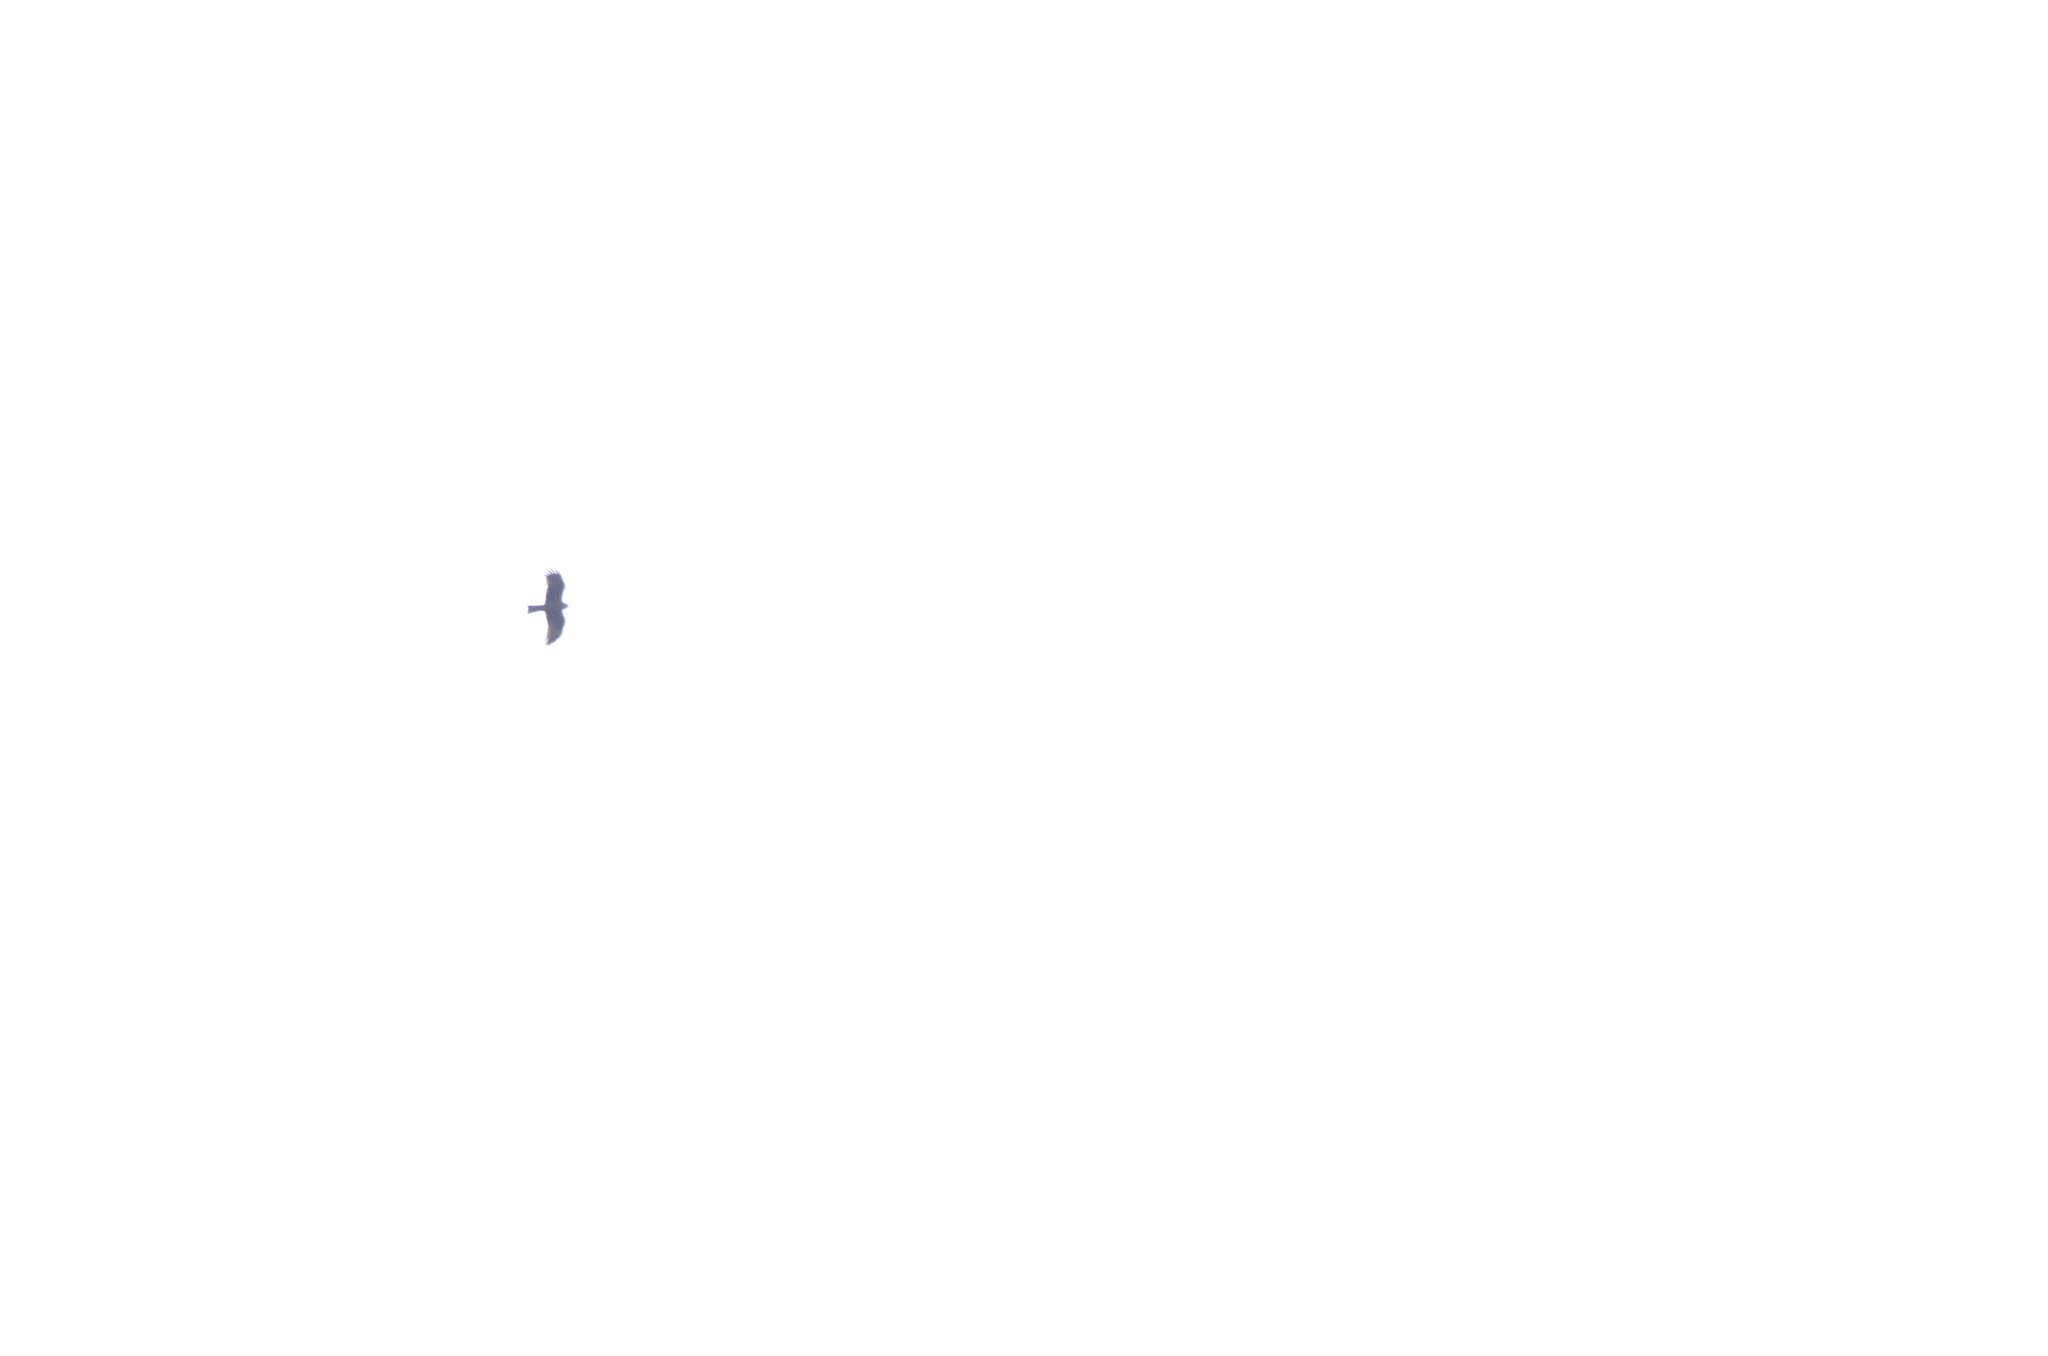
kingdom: Animalia
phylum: Chordata
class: Aves
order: Accipitriformes
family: Accipitridae
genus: Milvus
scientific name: Milvus migrans
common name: Black kite
